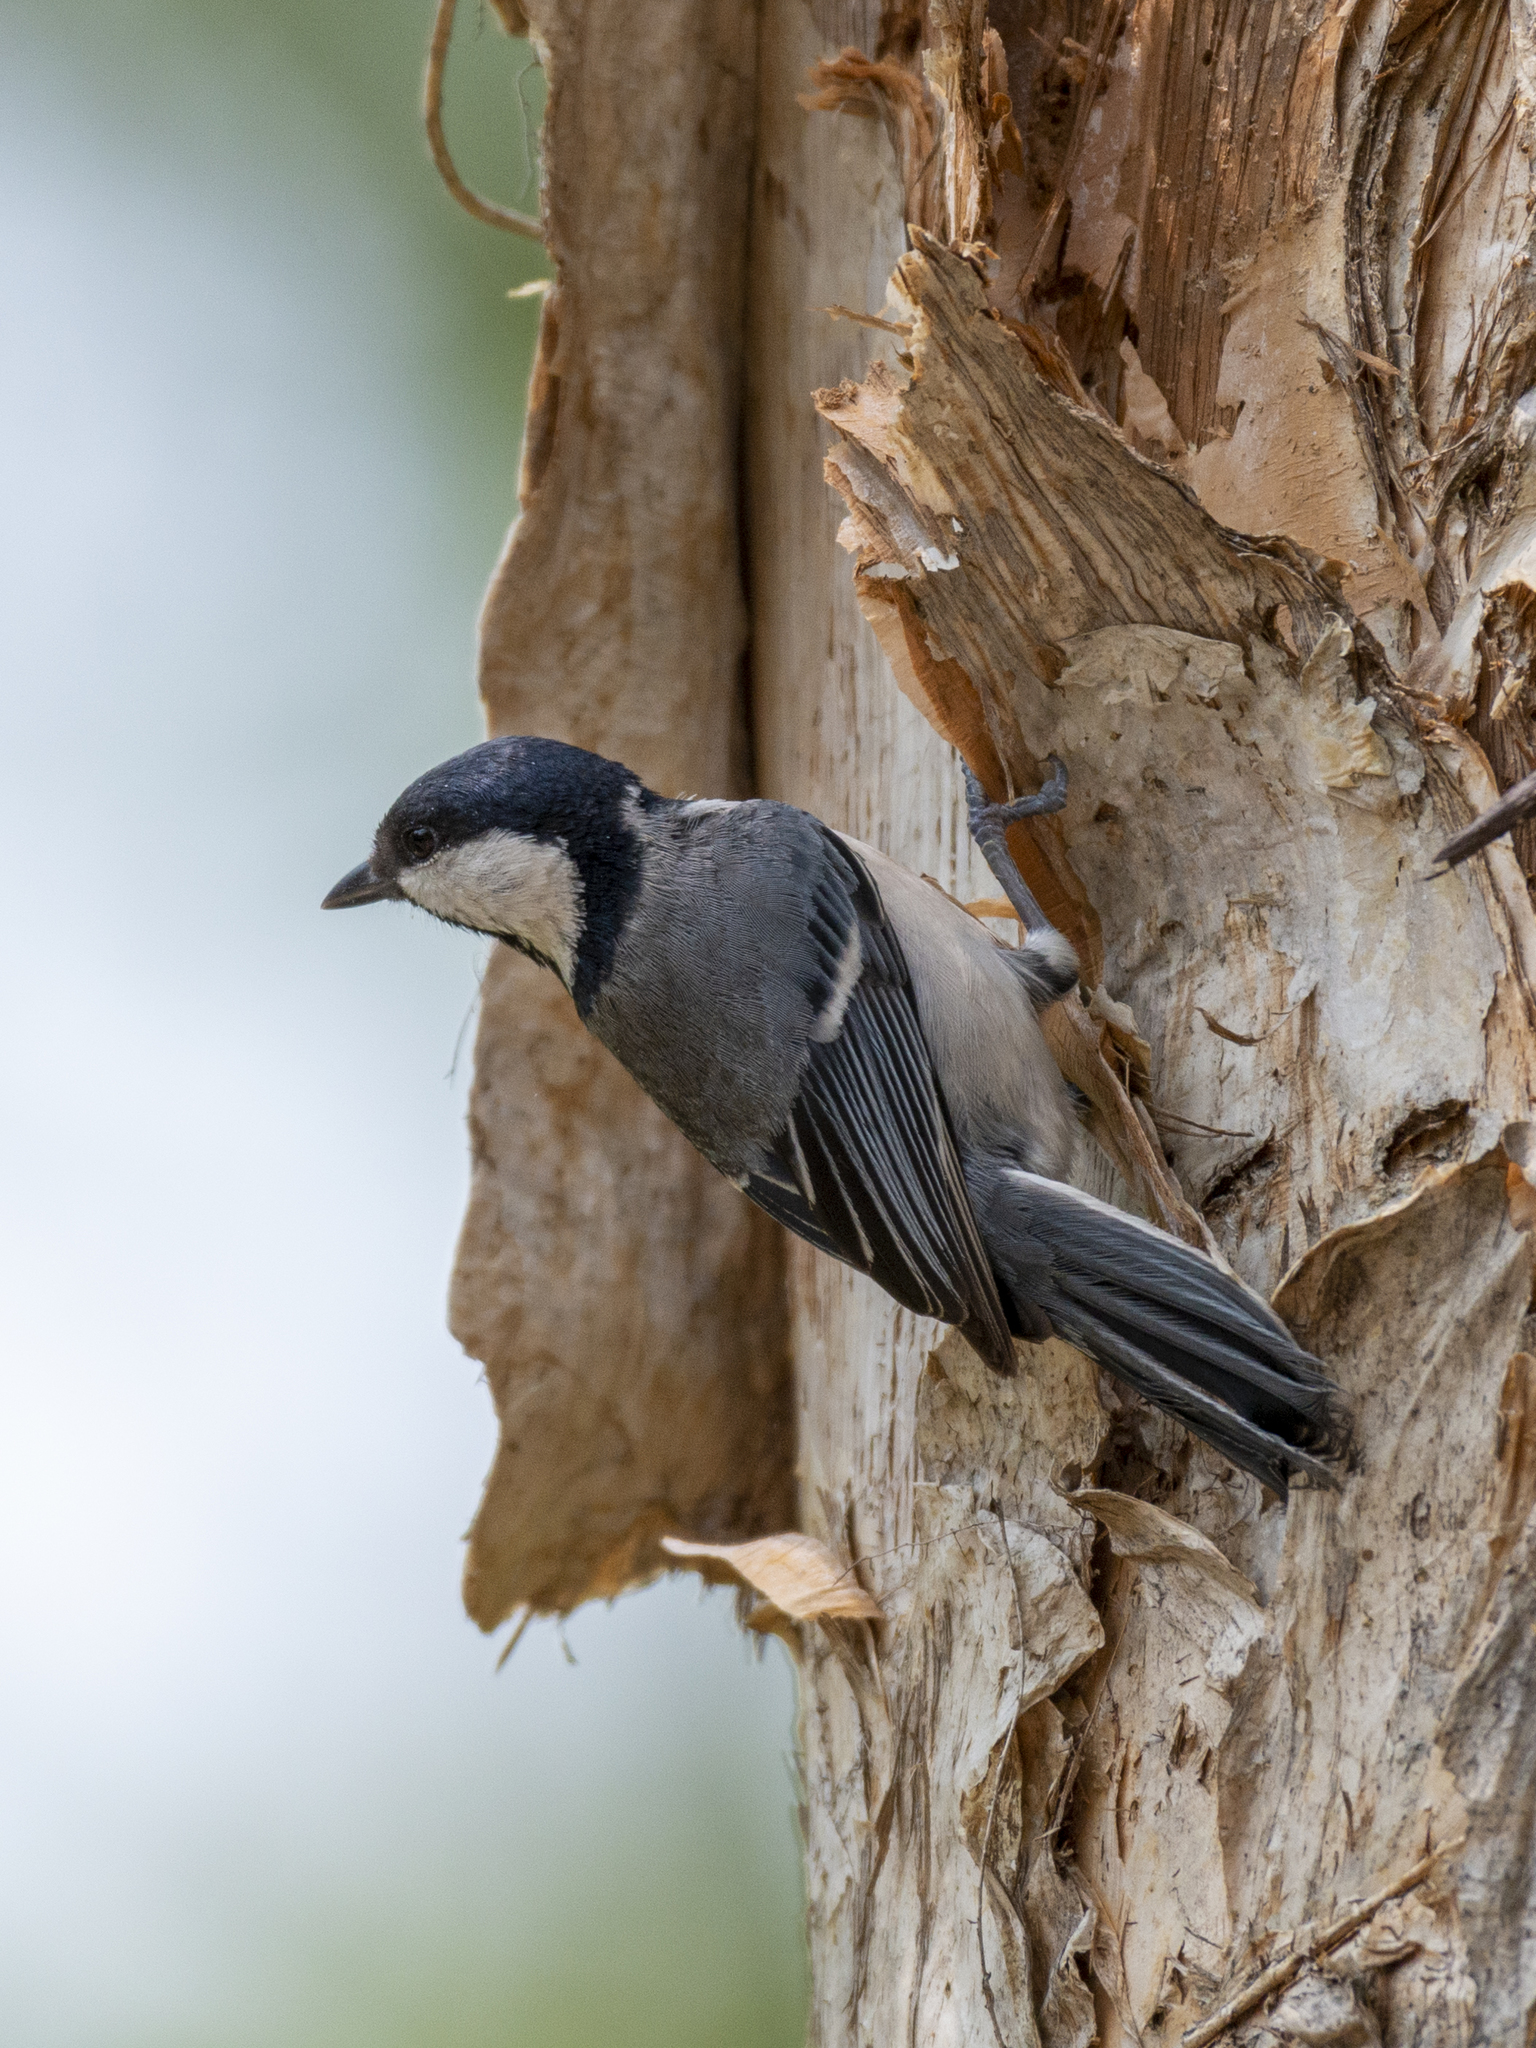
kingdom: Animalia
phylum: Chordata
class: Aves
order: Passeriformes
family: Paridae
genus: Parus
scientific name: Parus minor
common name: Japanese tit
